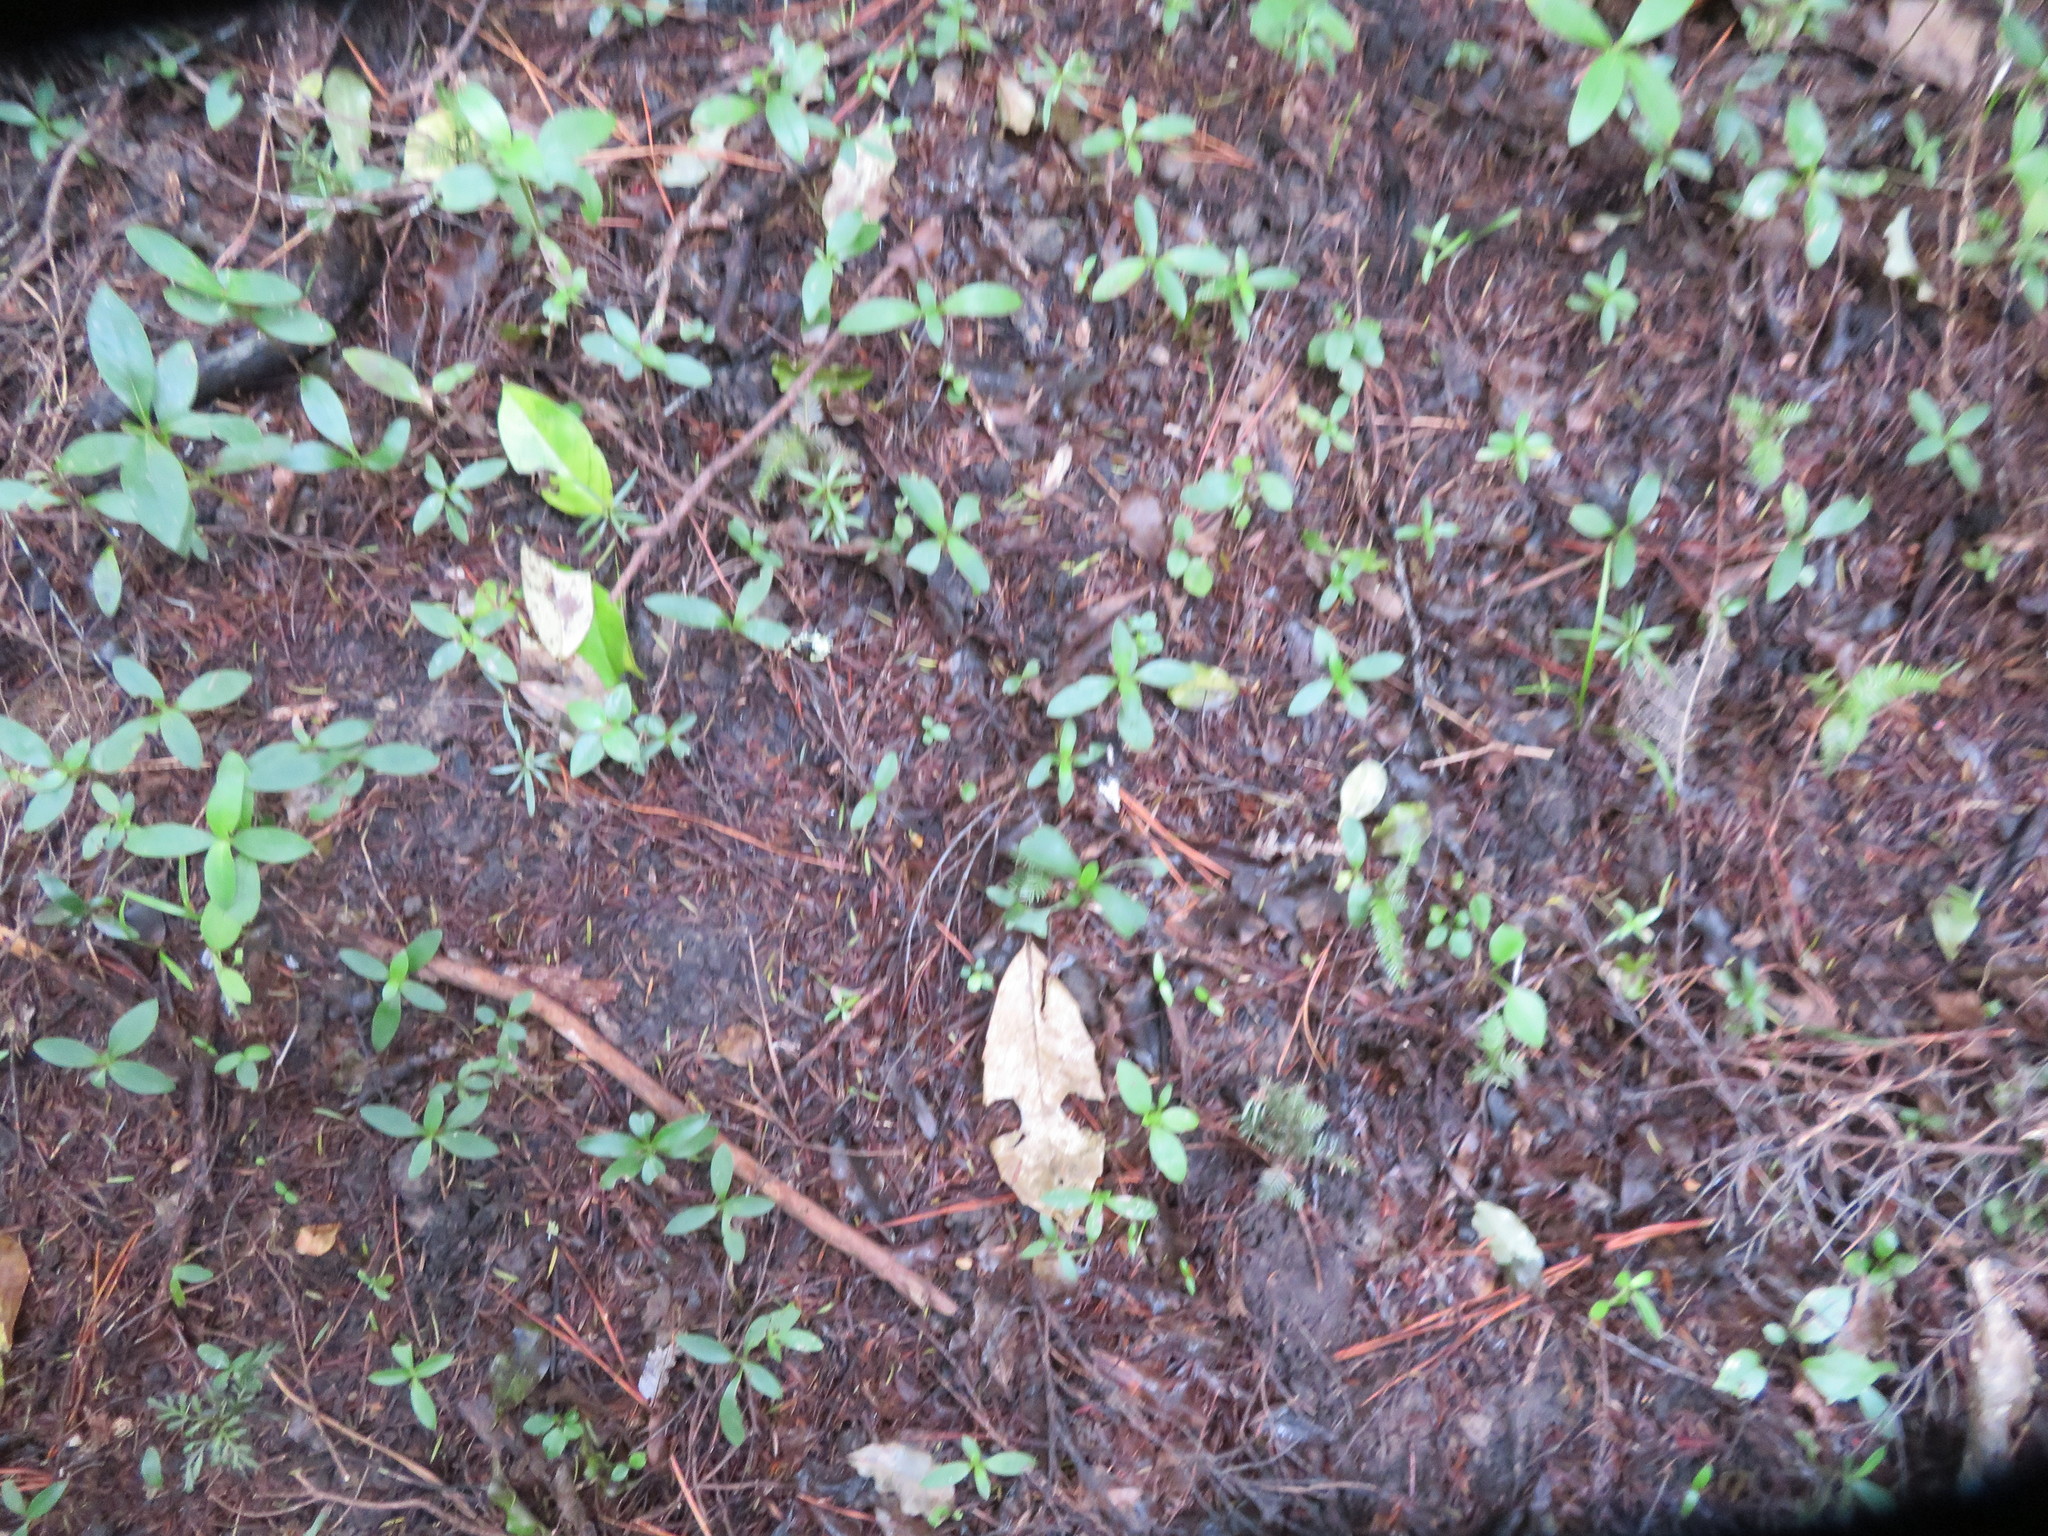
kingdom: Plantae
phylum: Tracheophyta
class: Pinopsida
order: Pinales
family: Phyllocladaceae
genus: Phyllocladus
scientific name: Phyllocladus trichomanoides
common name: Celery pine
